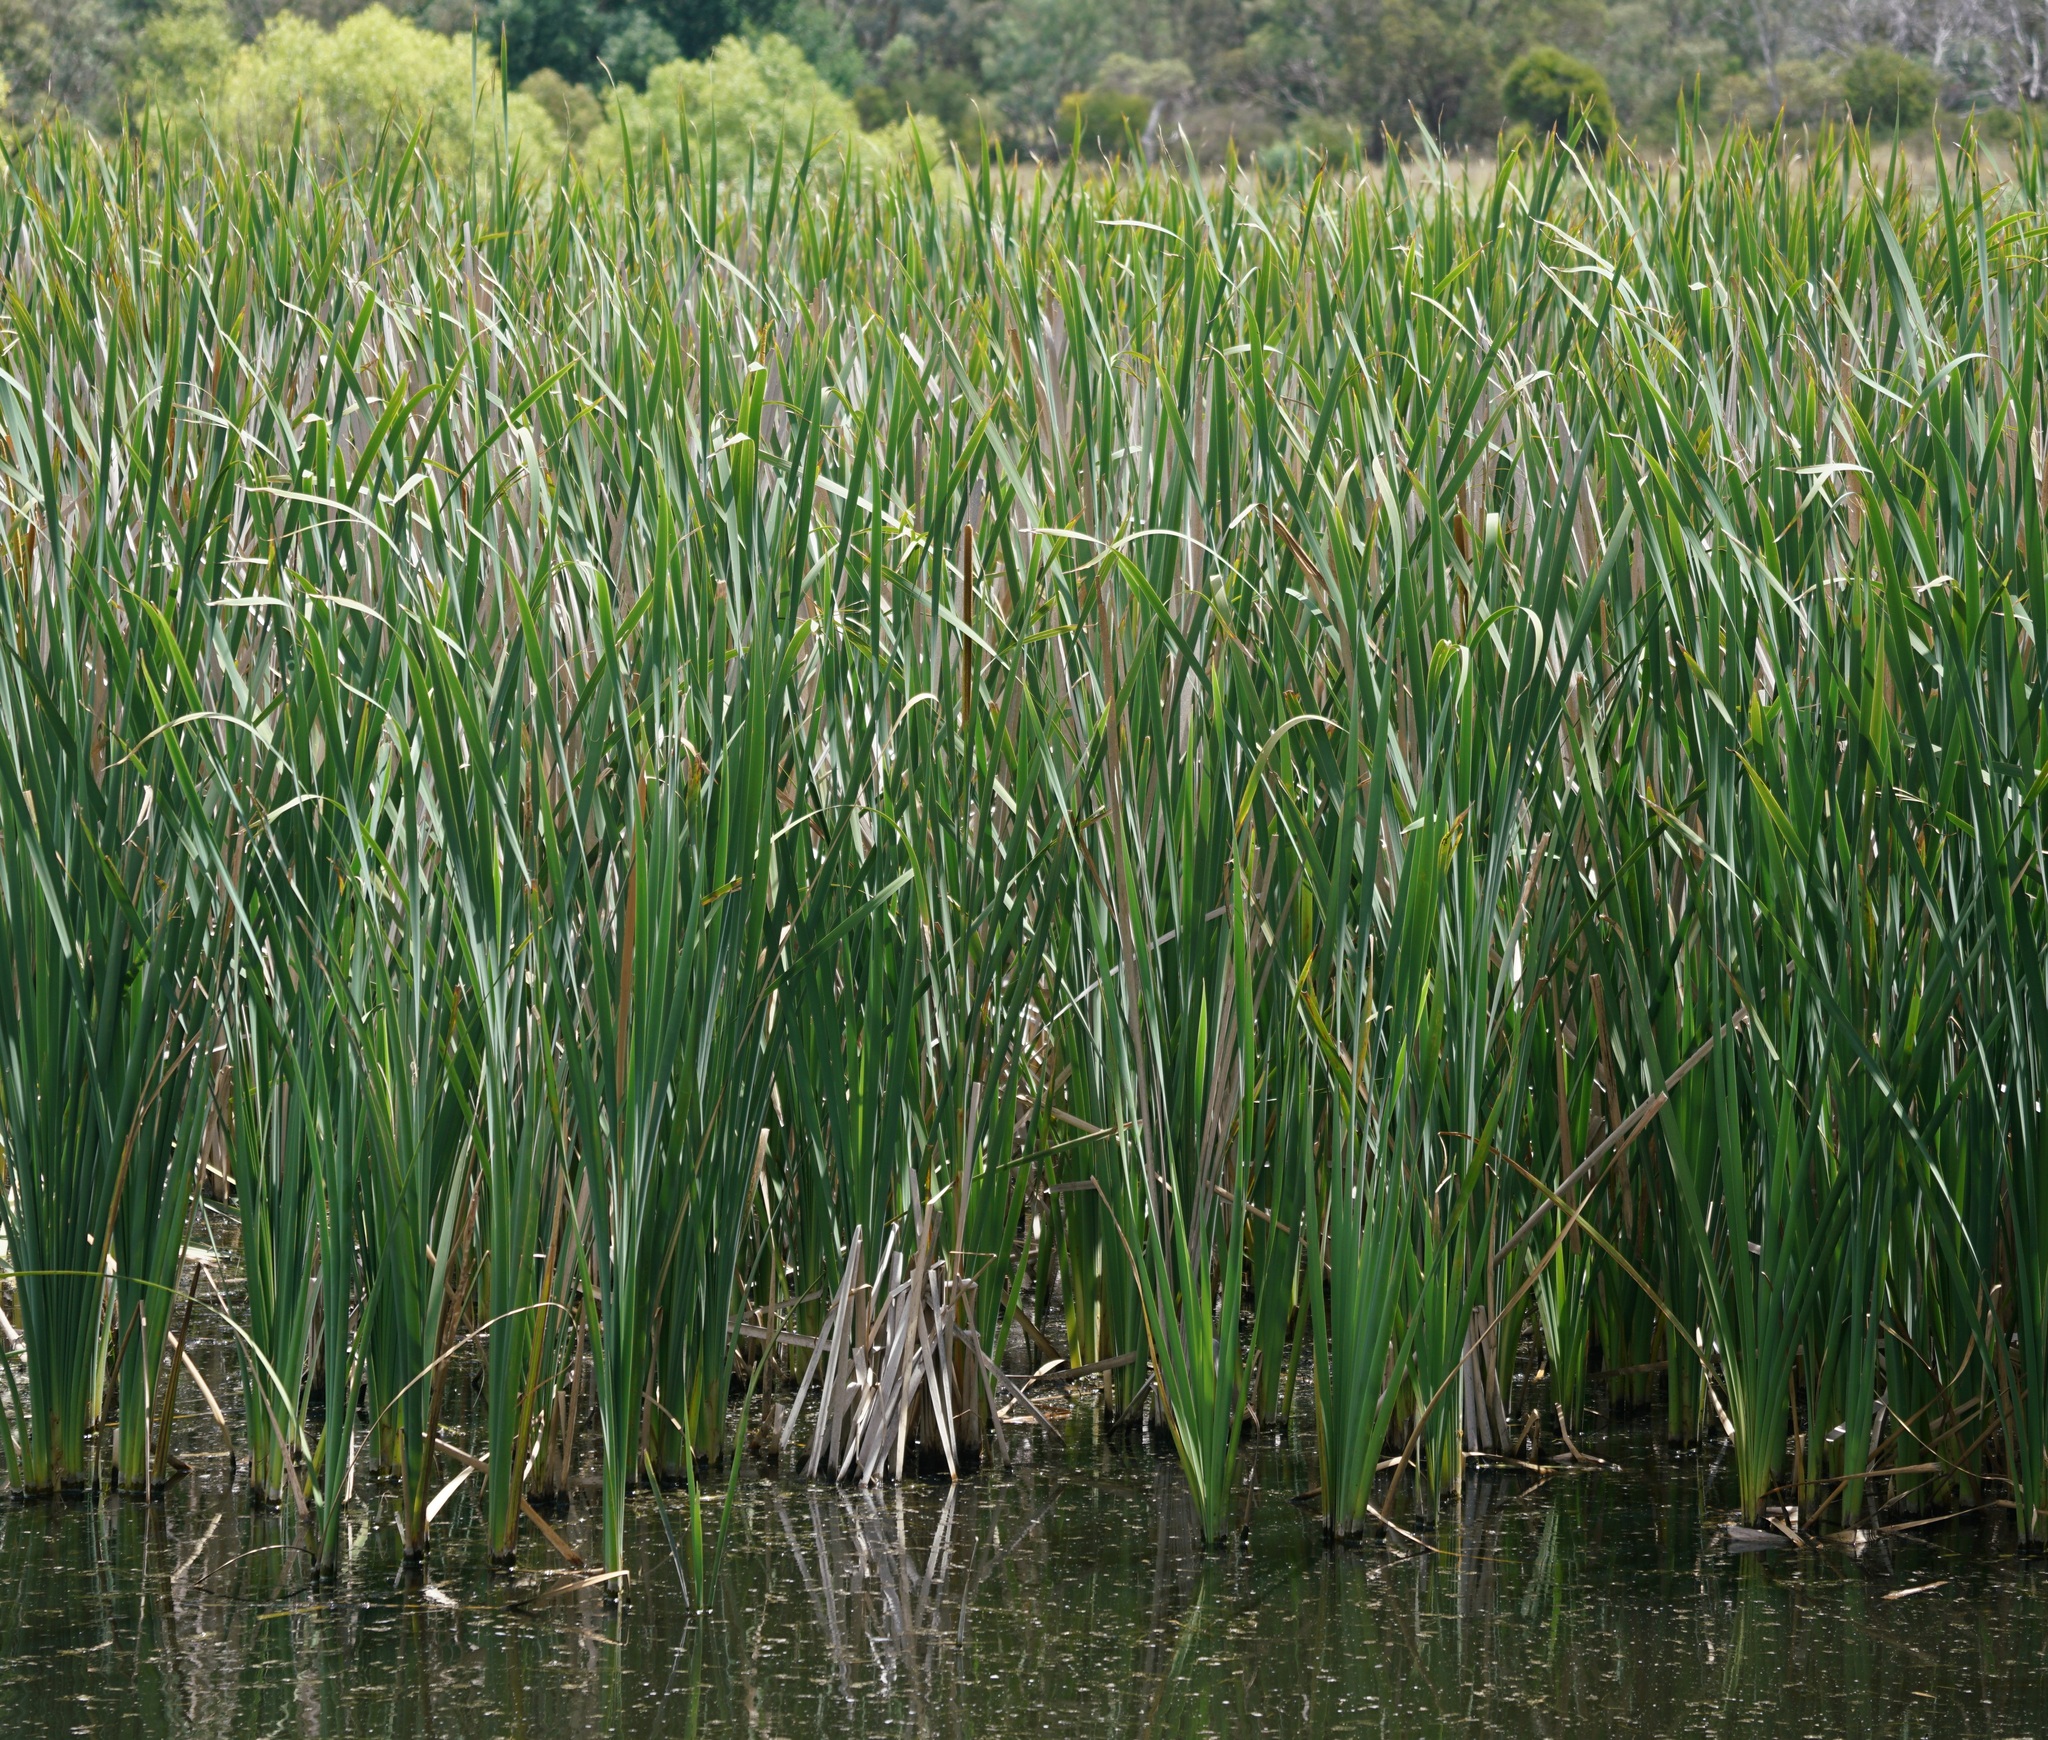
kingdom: Plantae
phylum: Tracheophyta
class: Liliopsida
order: Poales
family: Typhaceae
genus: Typha
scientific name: Typha
